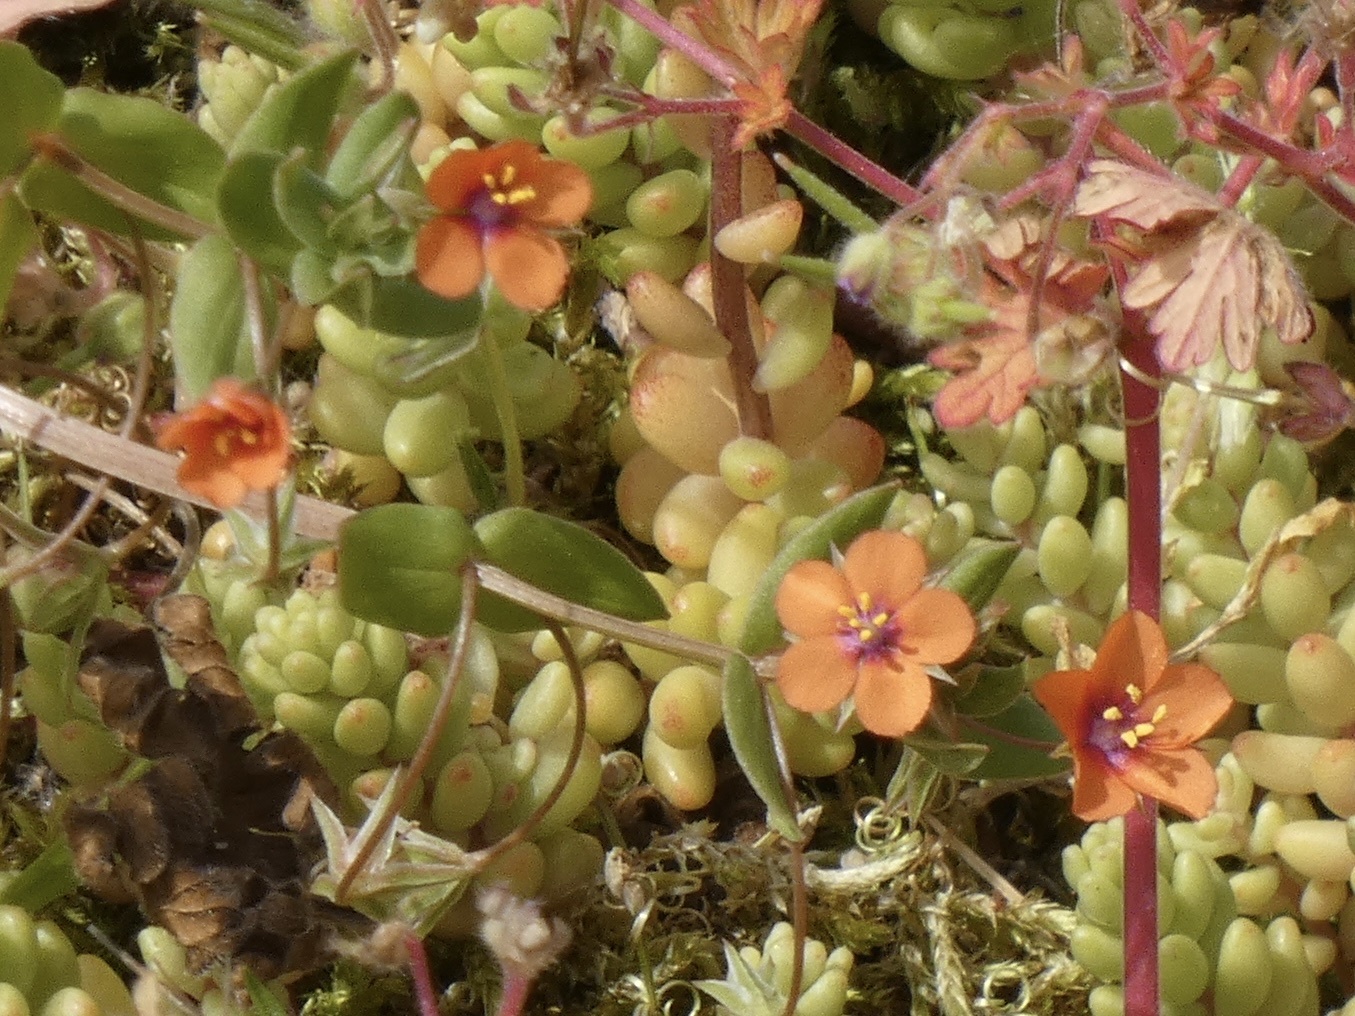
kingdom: Plantae
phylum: Tracheophyta
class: Magnoliopsida
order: Ericales
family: Primulaceae
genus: Lysimachia
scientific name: Lysimachia arvensis
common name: Scarlet pimpernel
